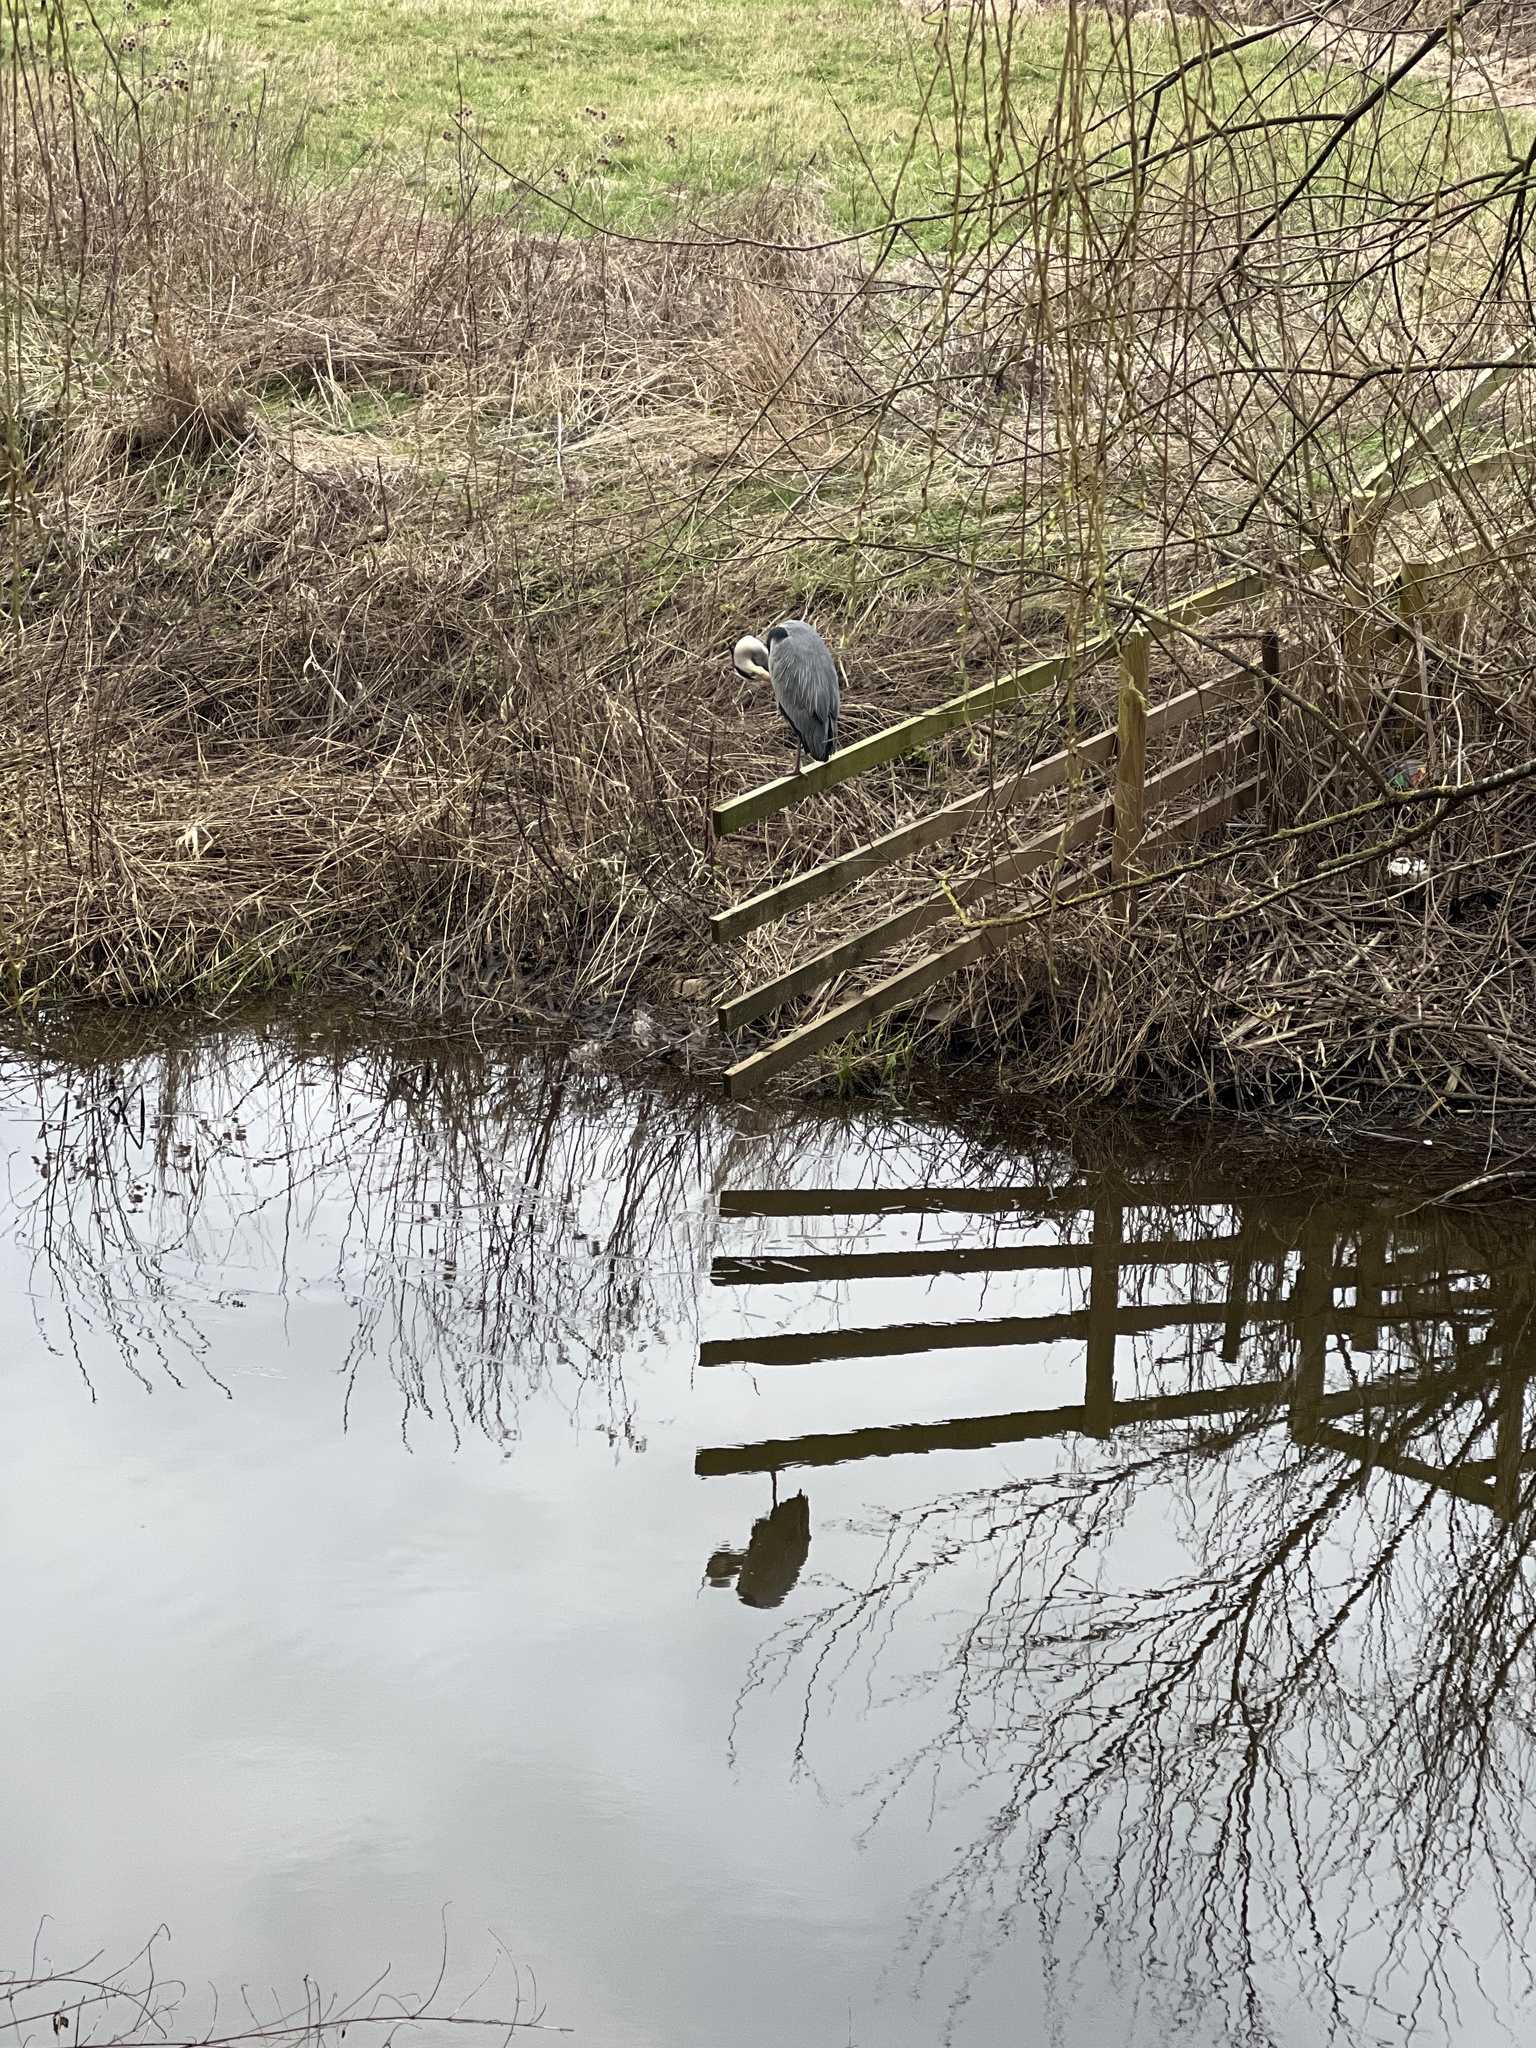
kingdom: Animalia
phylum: Chordata
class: Aves
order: Pelecaniformes
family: Ardeidae
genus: Ardea
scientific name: Ardea cinerea
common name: Grey heron
